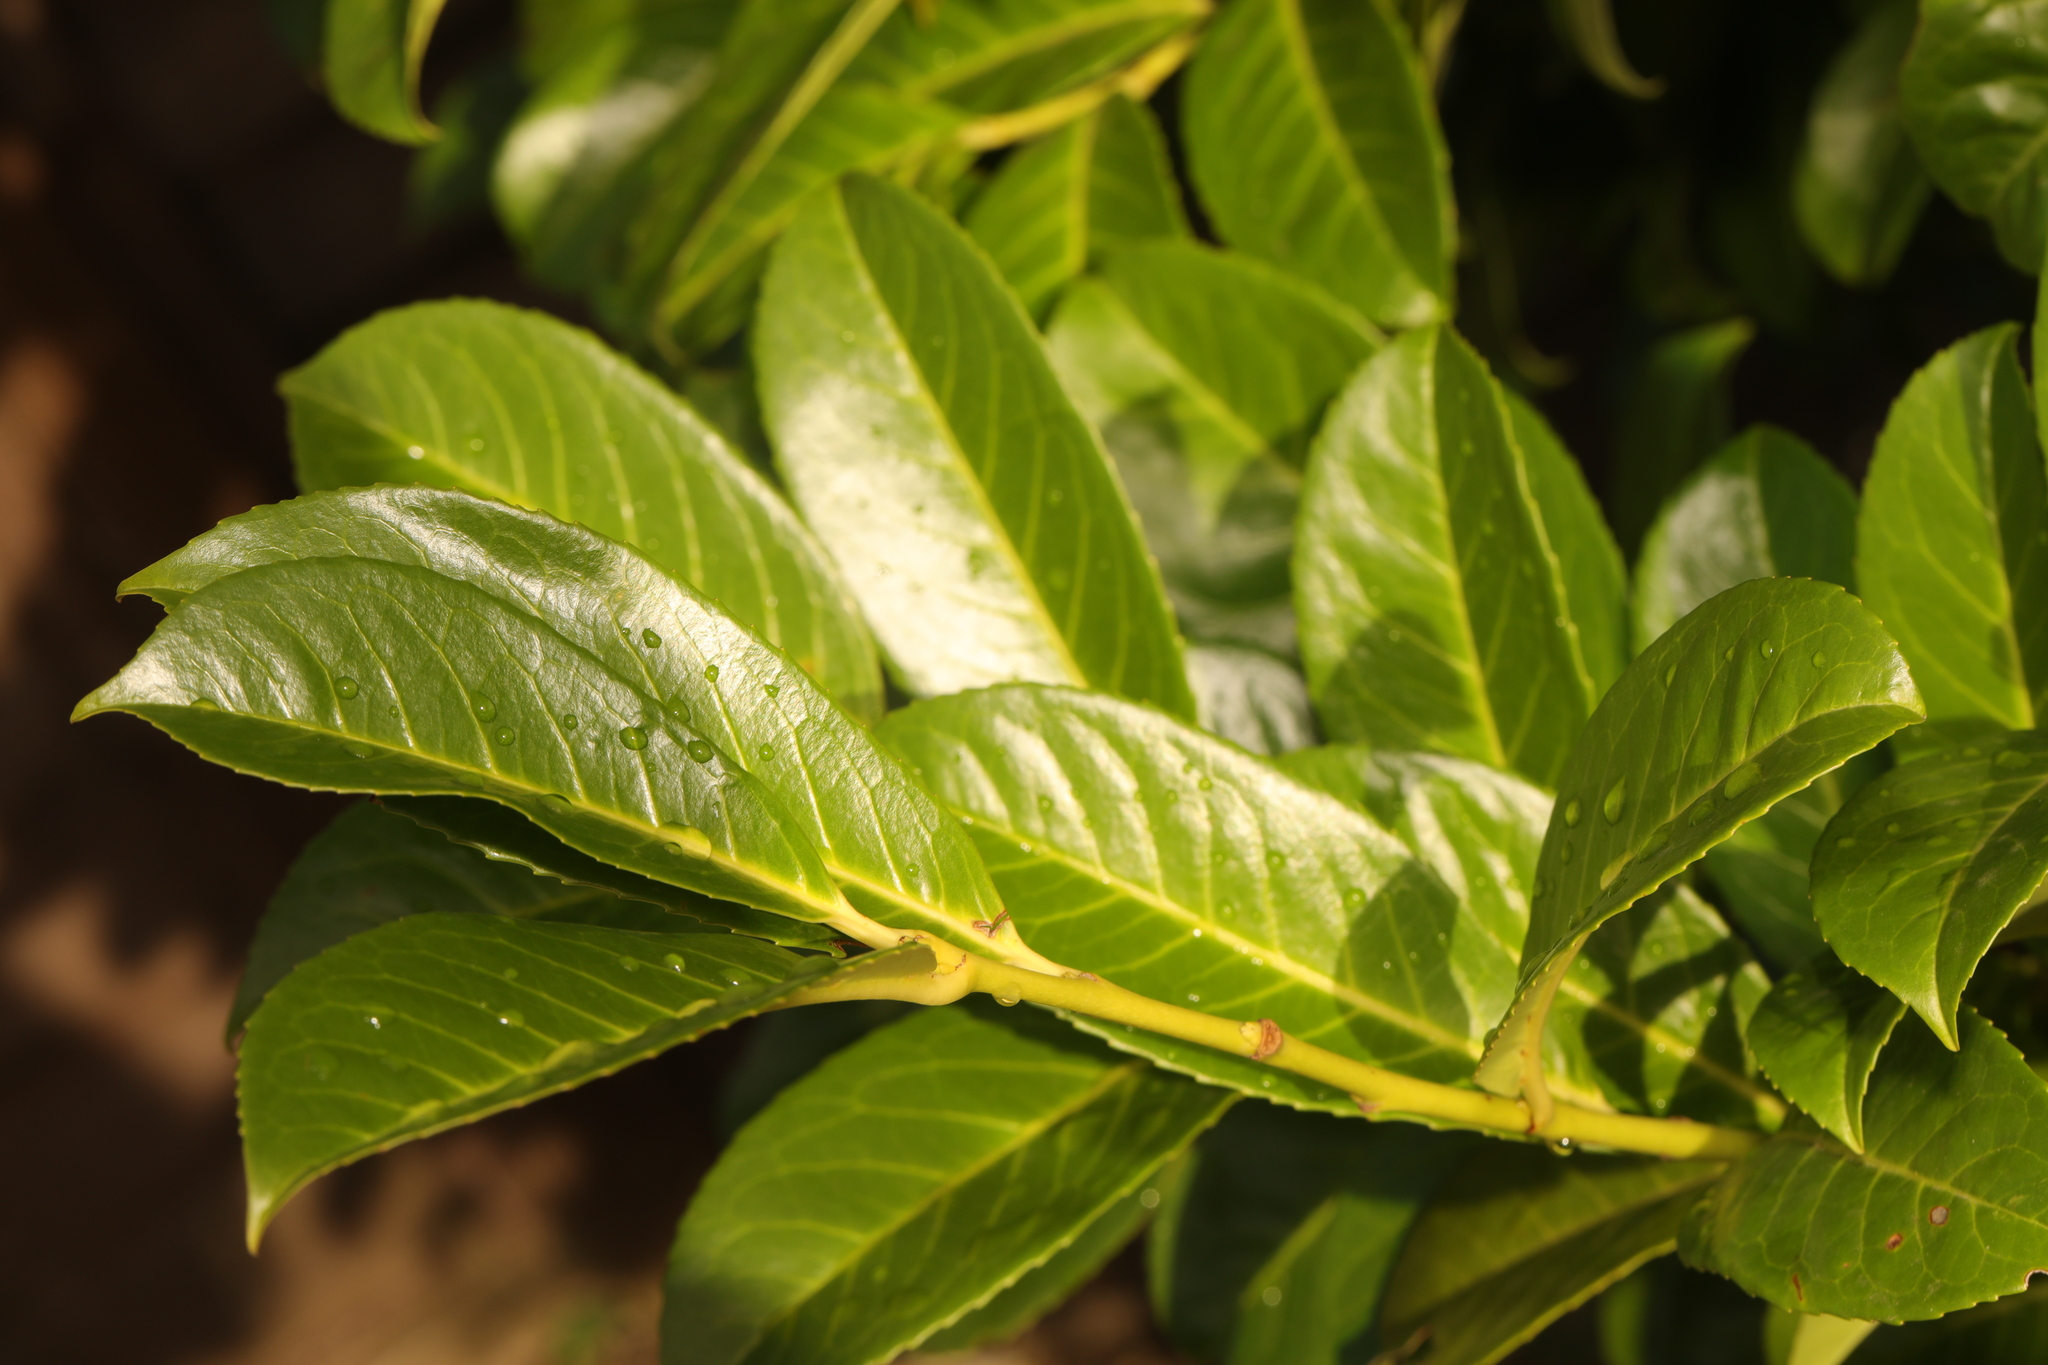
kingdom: Plantae
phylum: Tracheophyta
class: Magnoliopsida
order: Rosales
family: Rosaceae
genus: Prunus
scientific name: Prunus laurocerasus
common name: Cherry laurel
